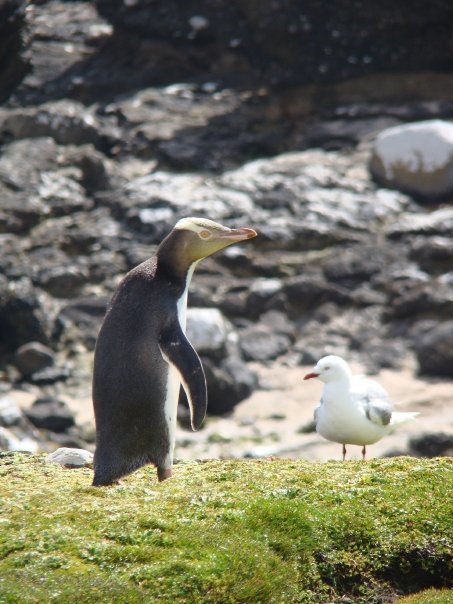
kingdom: Animalia
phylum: Chordata
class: Aves
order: Sphenisciformes
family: Spheniscidae
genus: Megadyptes
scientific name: Megadyptes antipodes
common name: Yellow-eyed penguin
